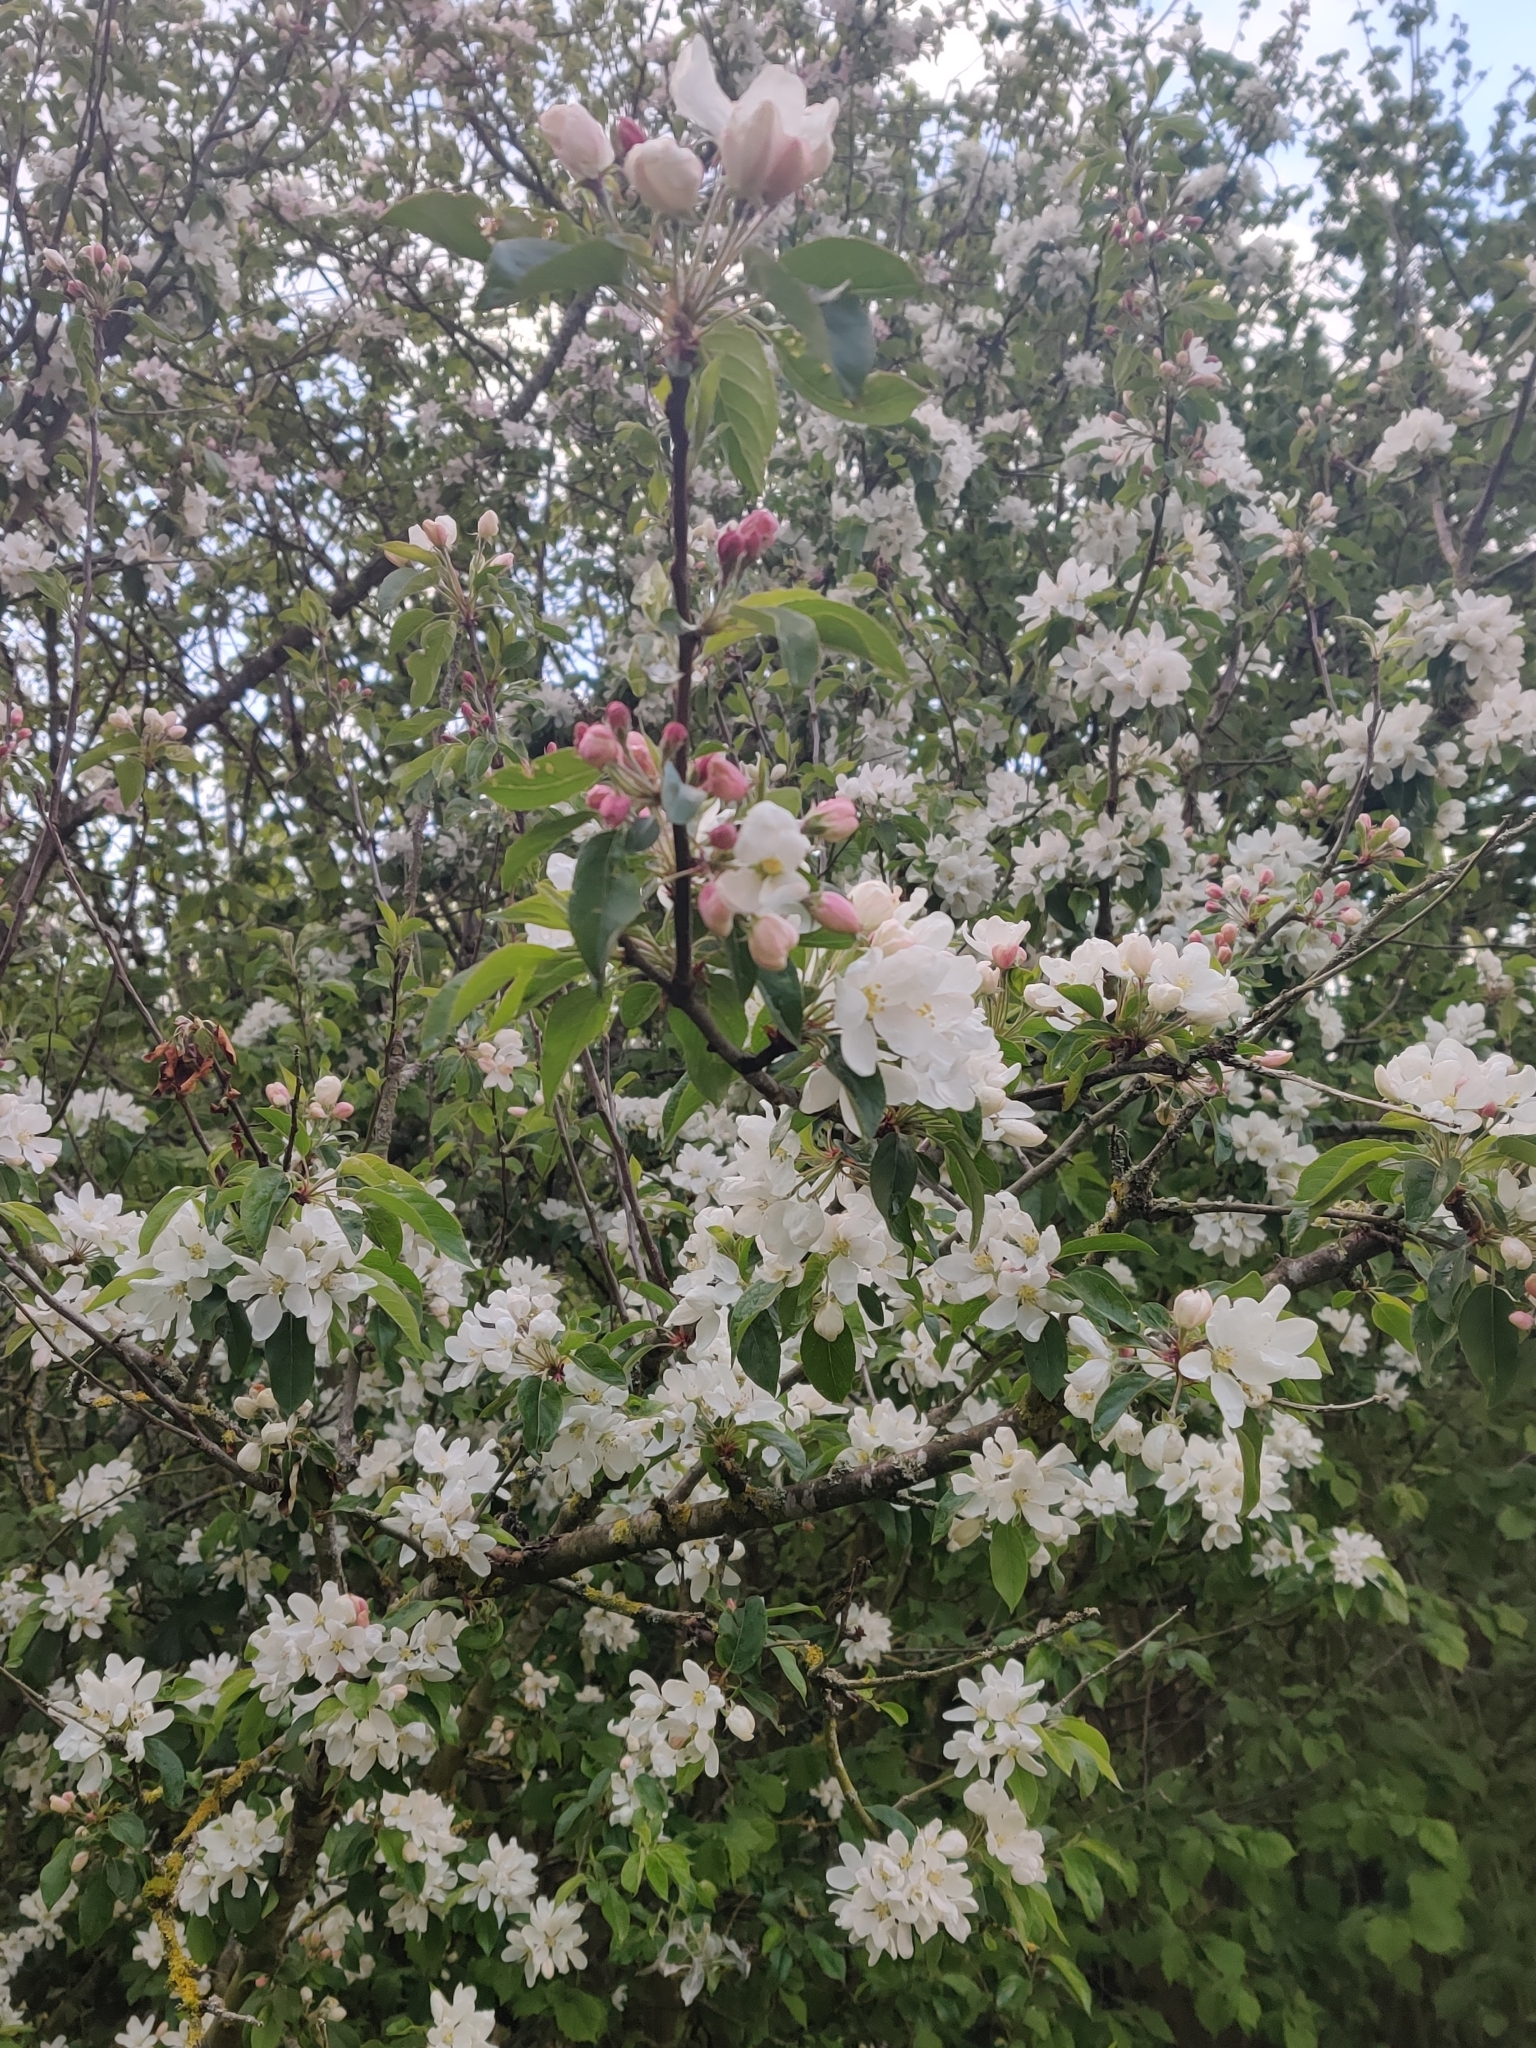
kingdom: Plantae
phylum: Tracheophyta
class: Magnoliopsida
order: Rosales
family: Rosaceae
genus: Malus
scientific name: Malus domestica
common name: Apple
